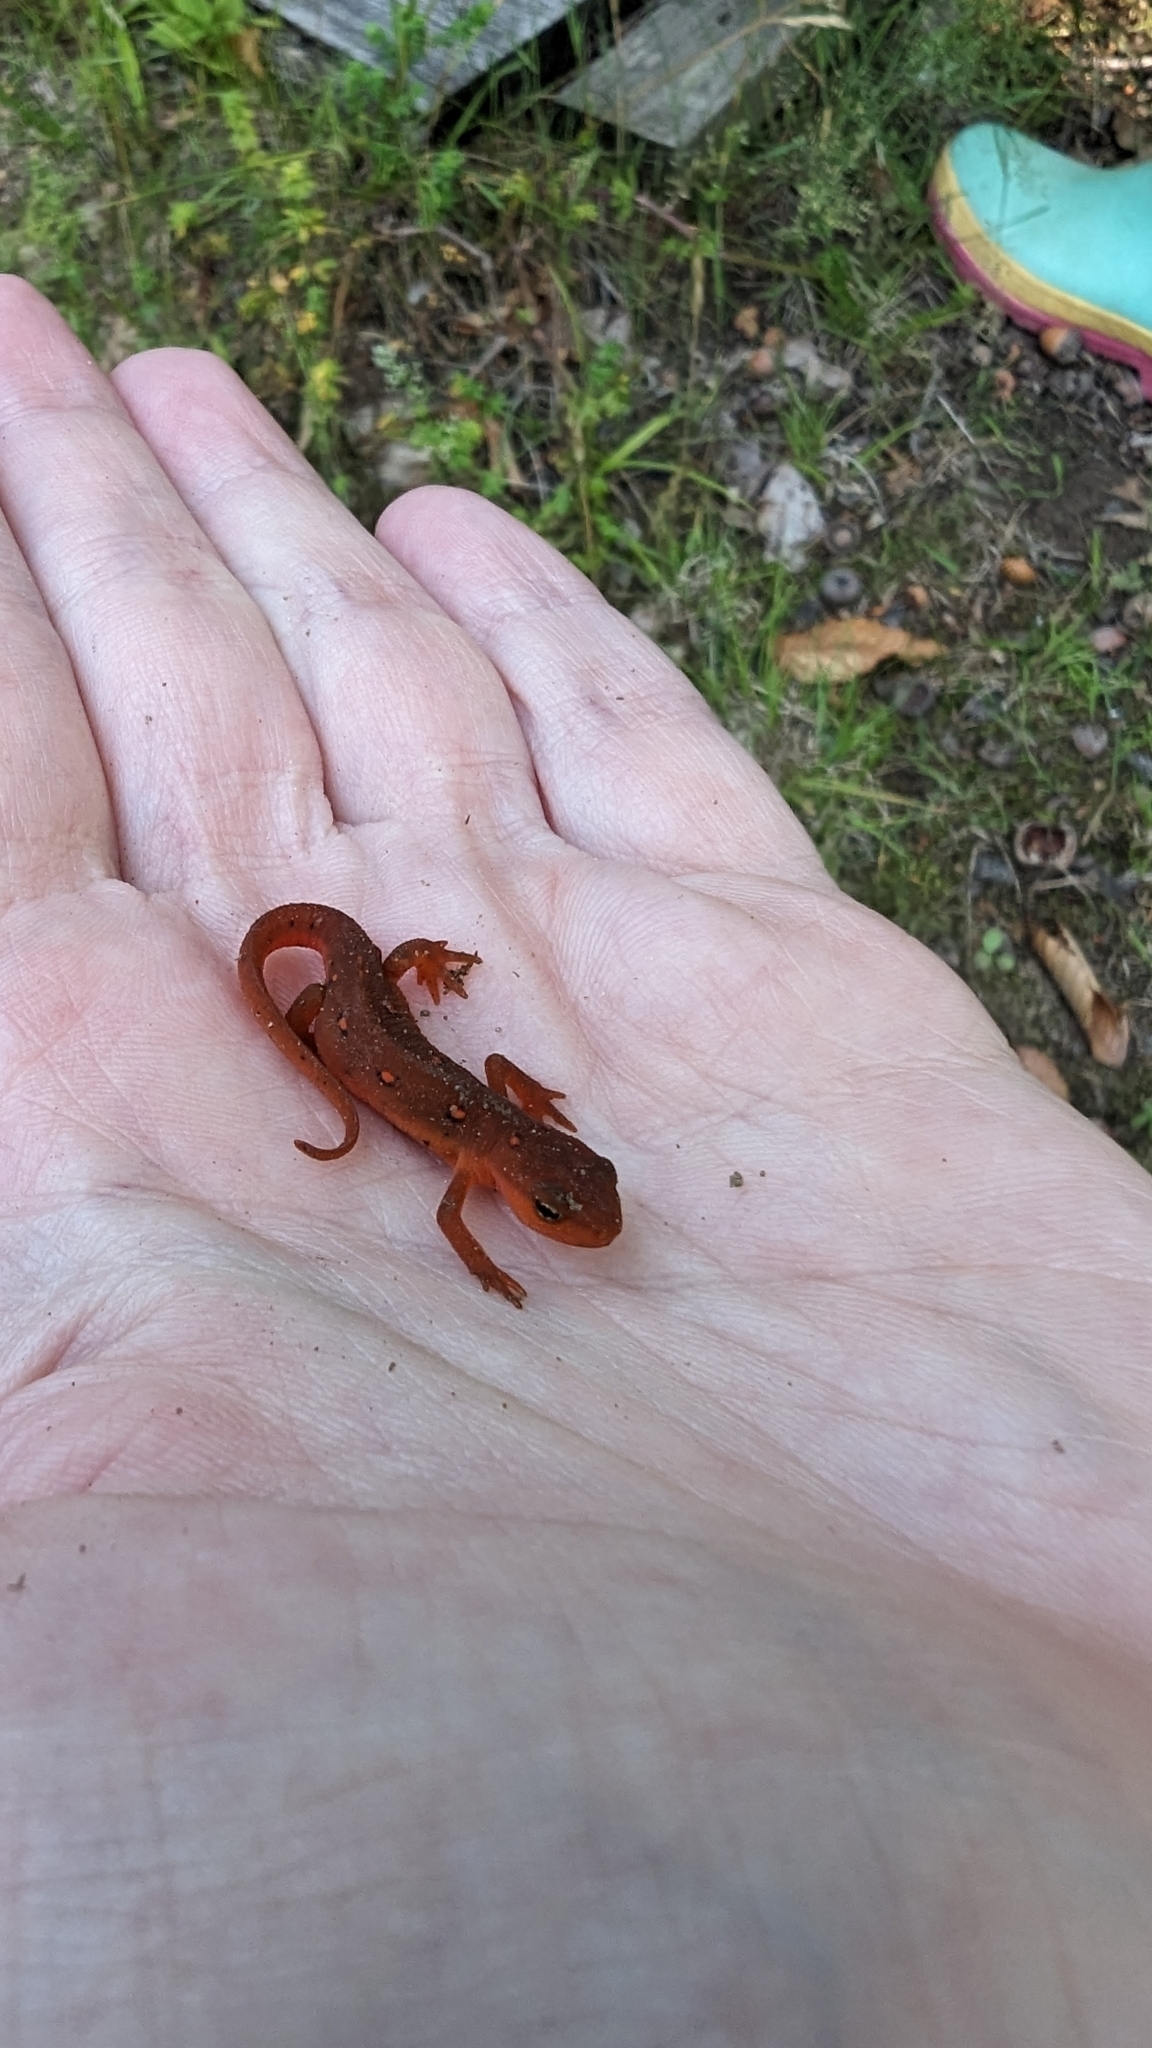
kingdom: Animalia
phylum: Chordata
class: Amphibia
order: Caudata
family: Salamandridae
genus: Notophthalmus
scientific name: Notophthalmus viridescens
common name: Eastern newt
